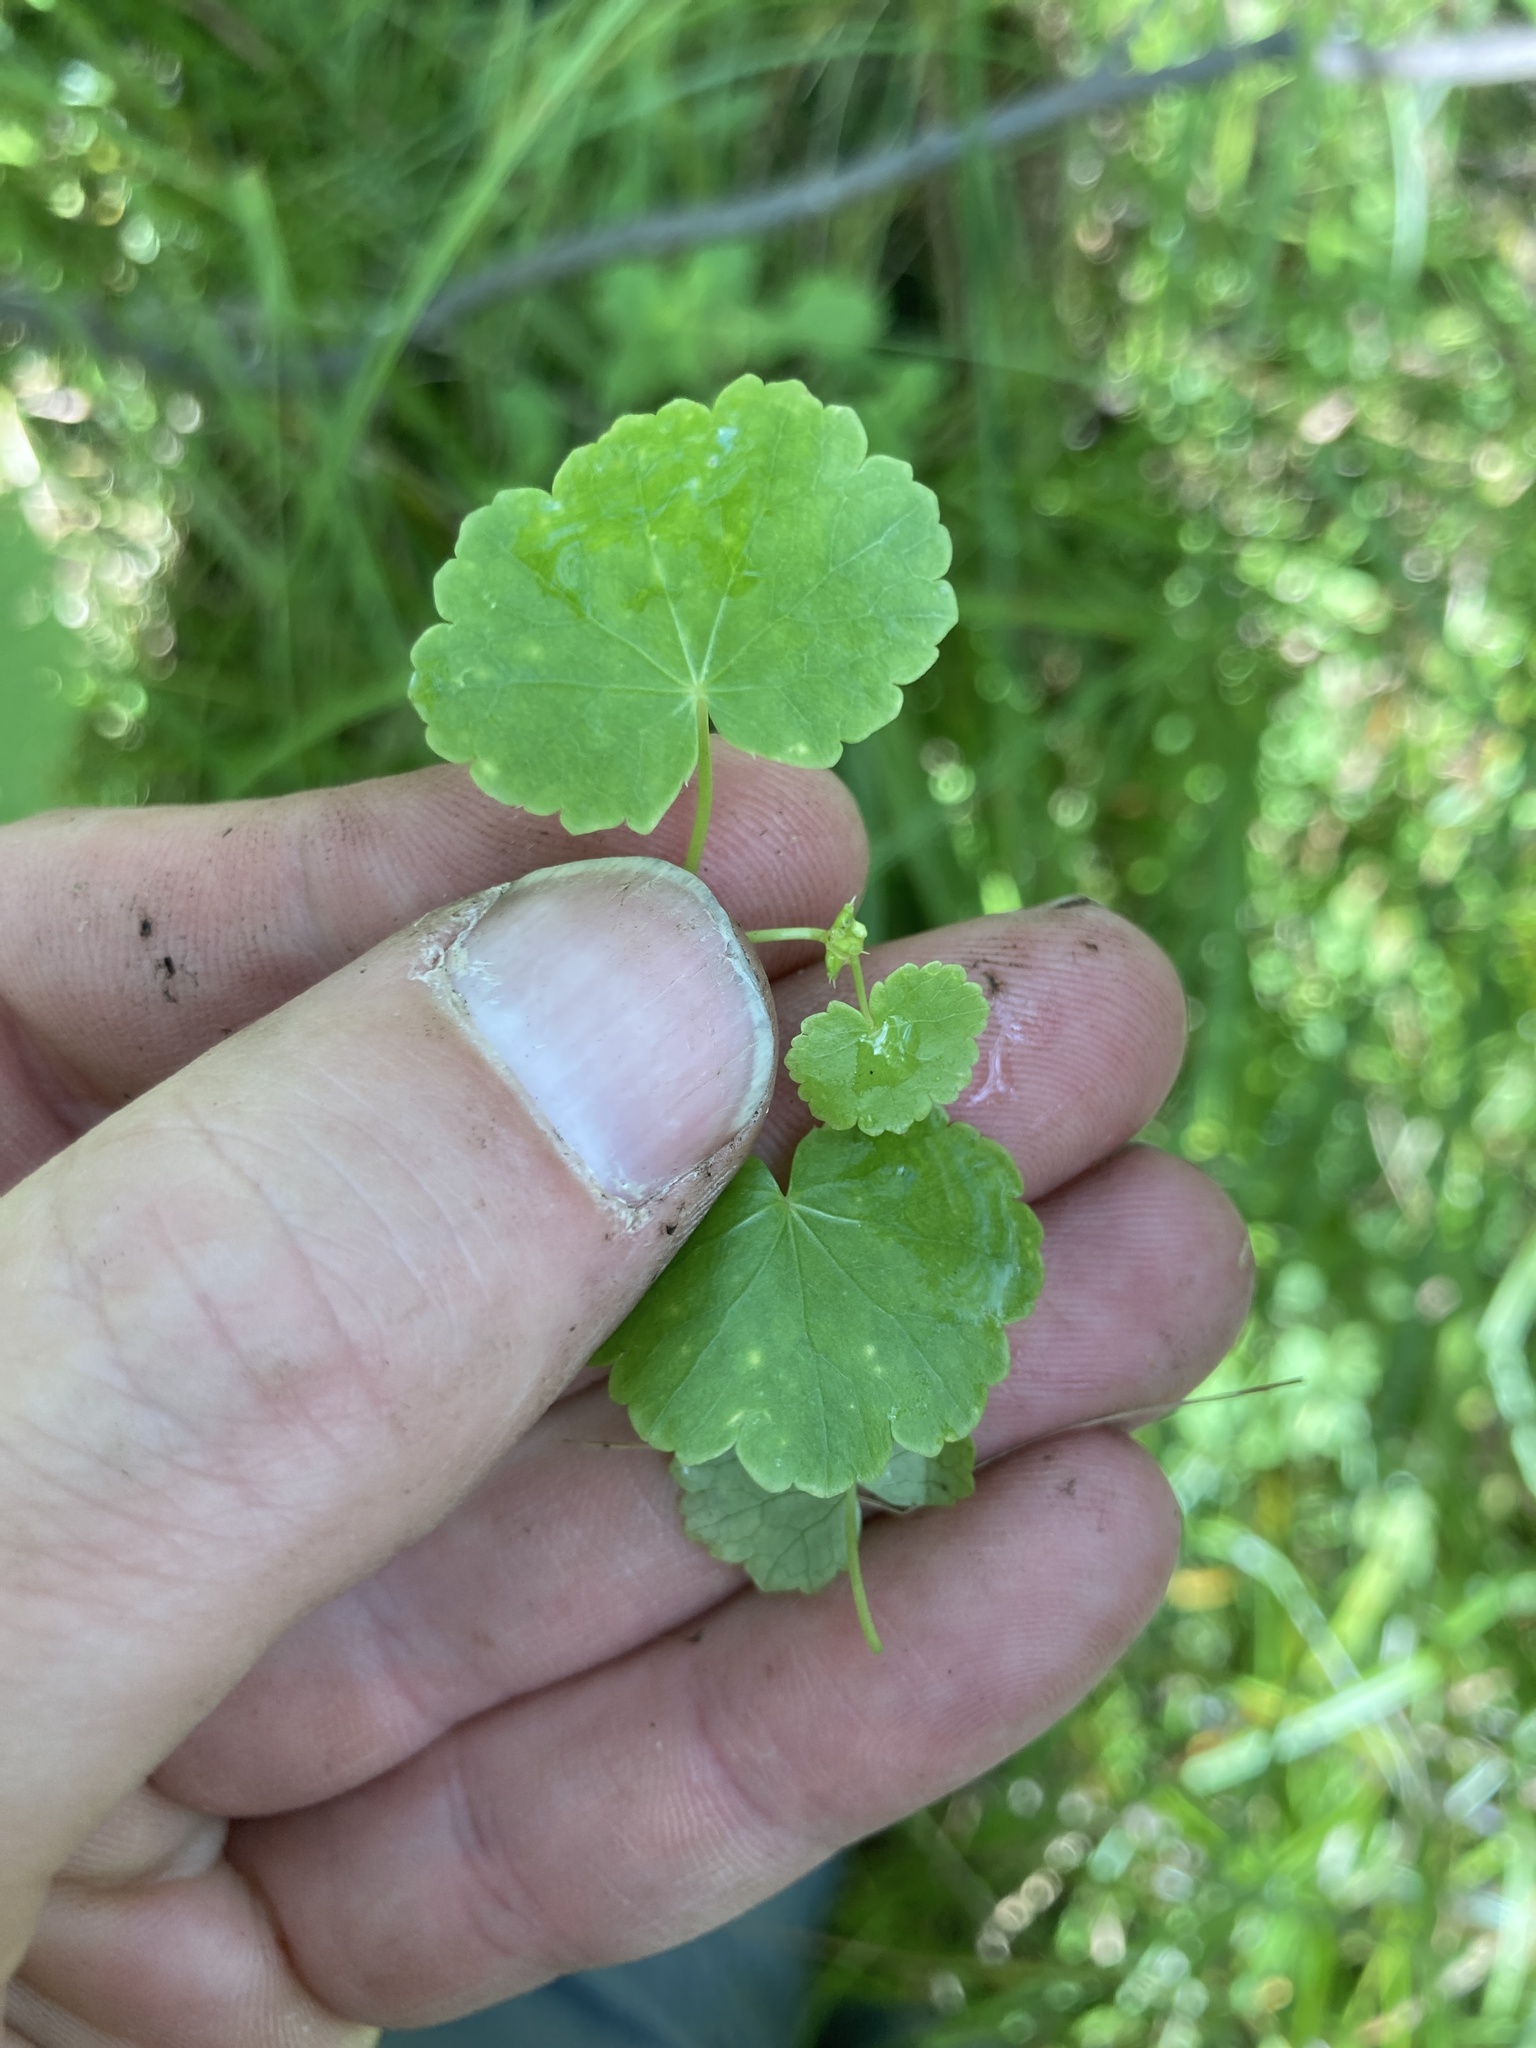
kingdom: Plantae
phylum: Tracheophyta
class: Magnoliopsida
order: Apiales
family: Araliaceae
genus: Hydrocotyle
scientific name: Hydrocotyle americana
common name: American water-pennywort
